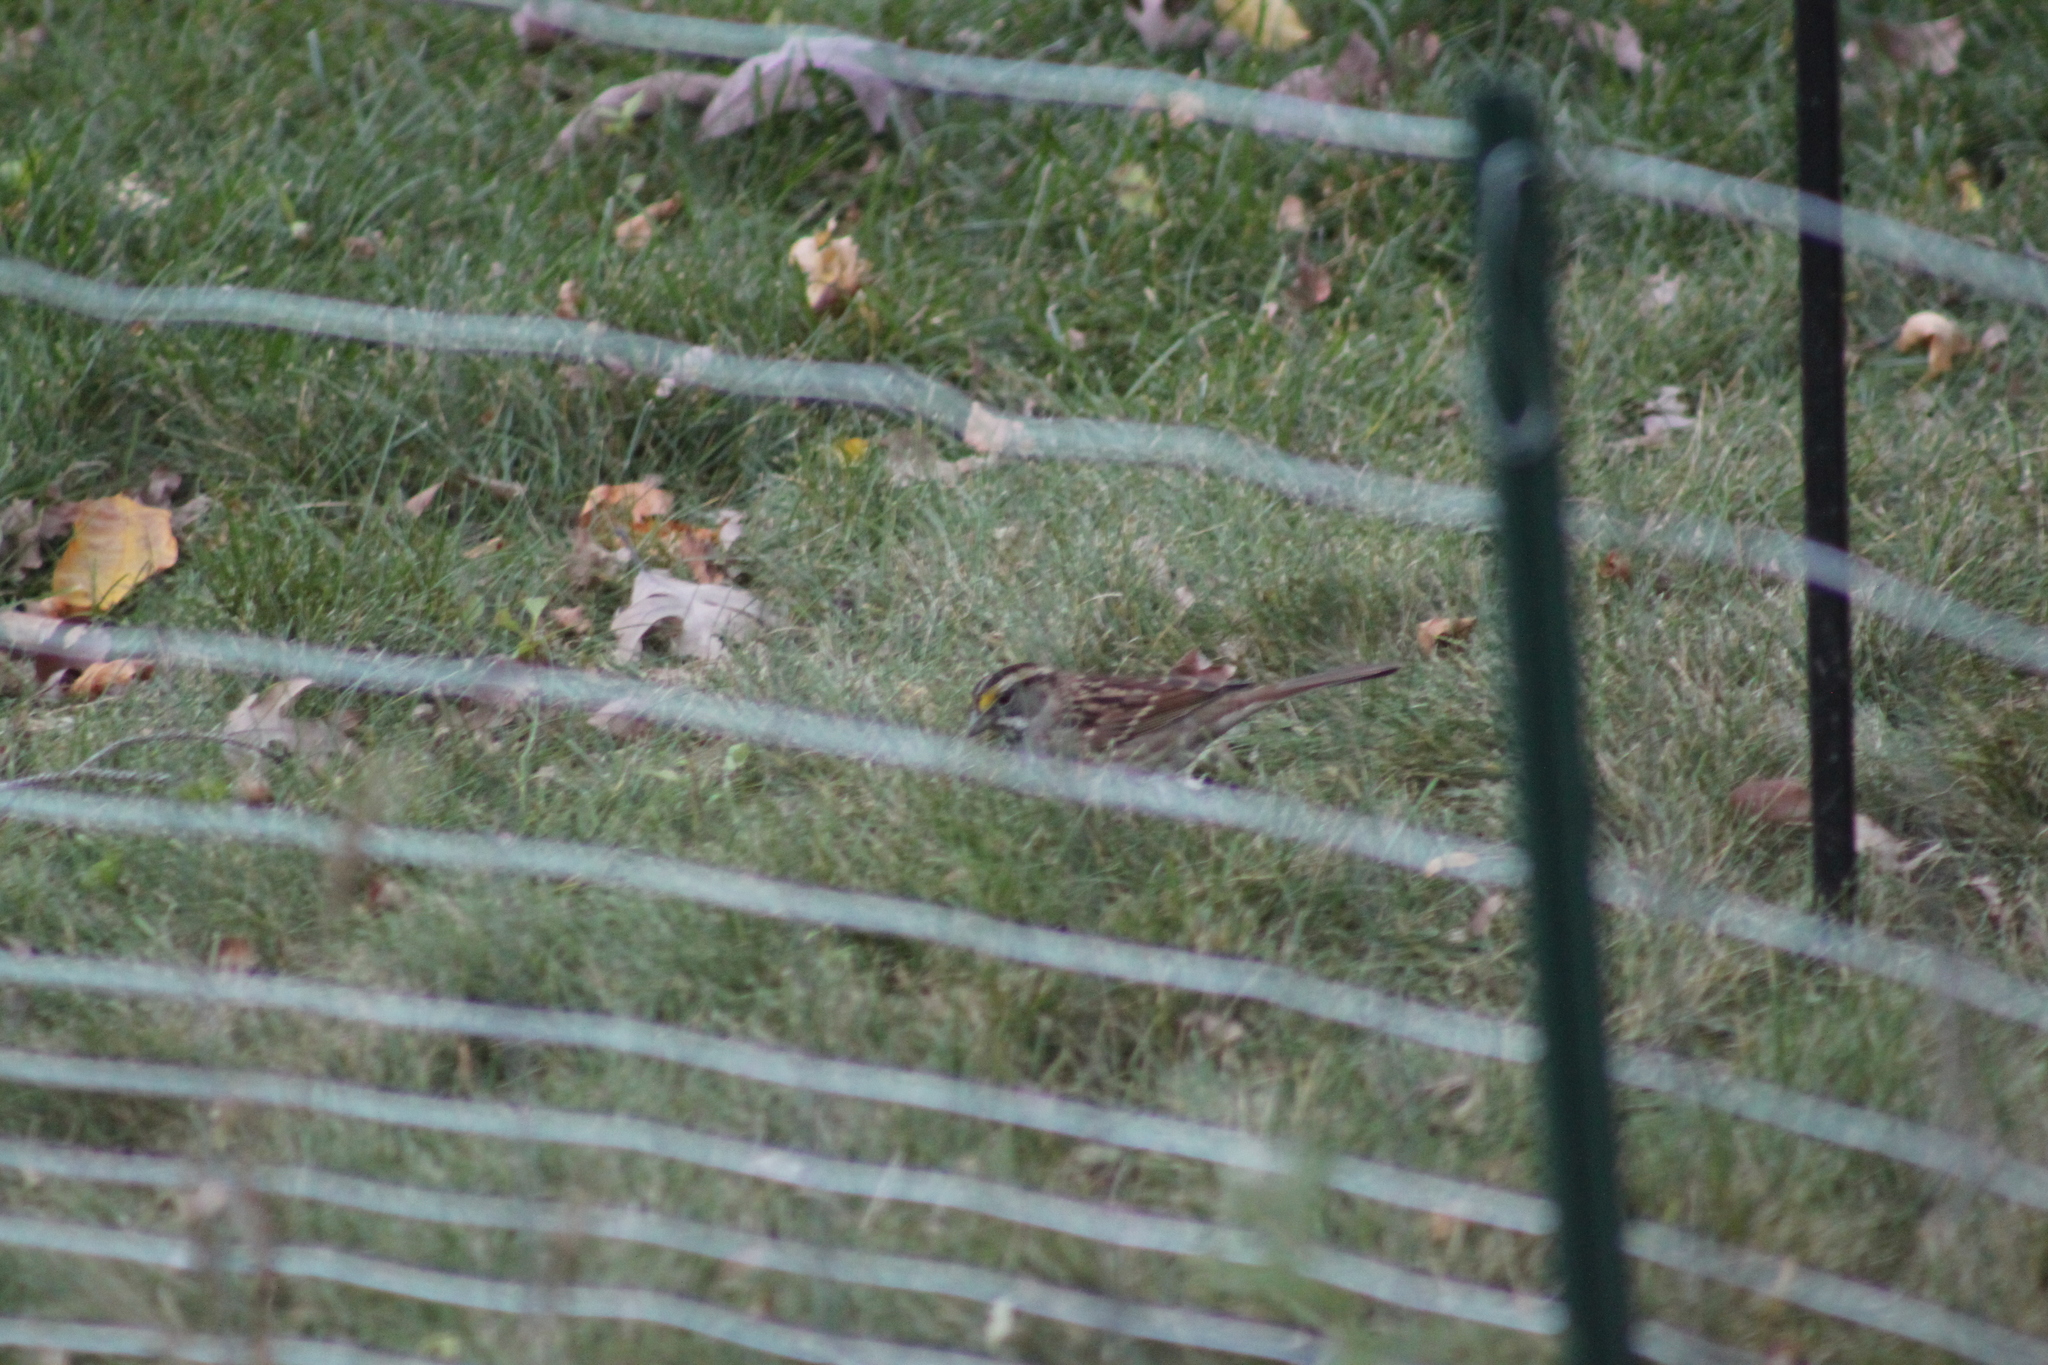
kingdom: Animalia
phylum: Chordata
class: Aves
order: Passeriformes
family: Passerellidae
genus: Zonotrichia
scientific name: Zonotrichia albicollis
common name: White-throated sparrow
